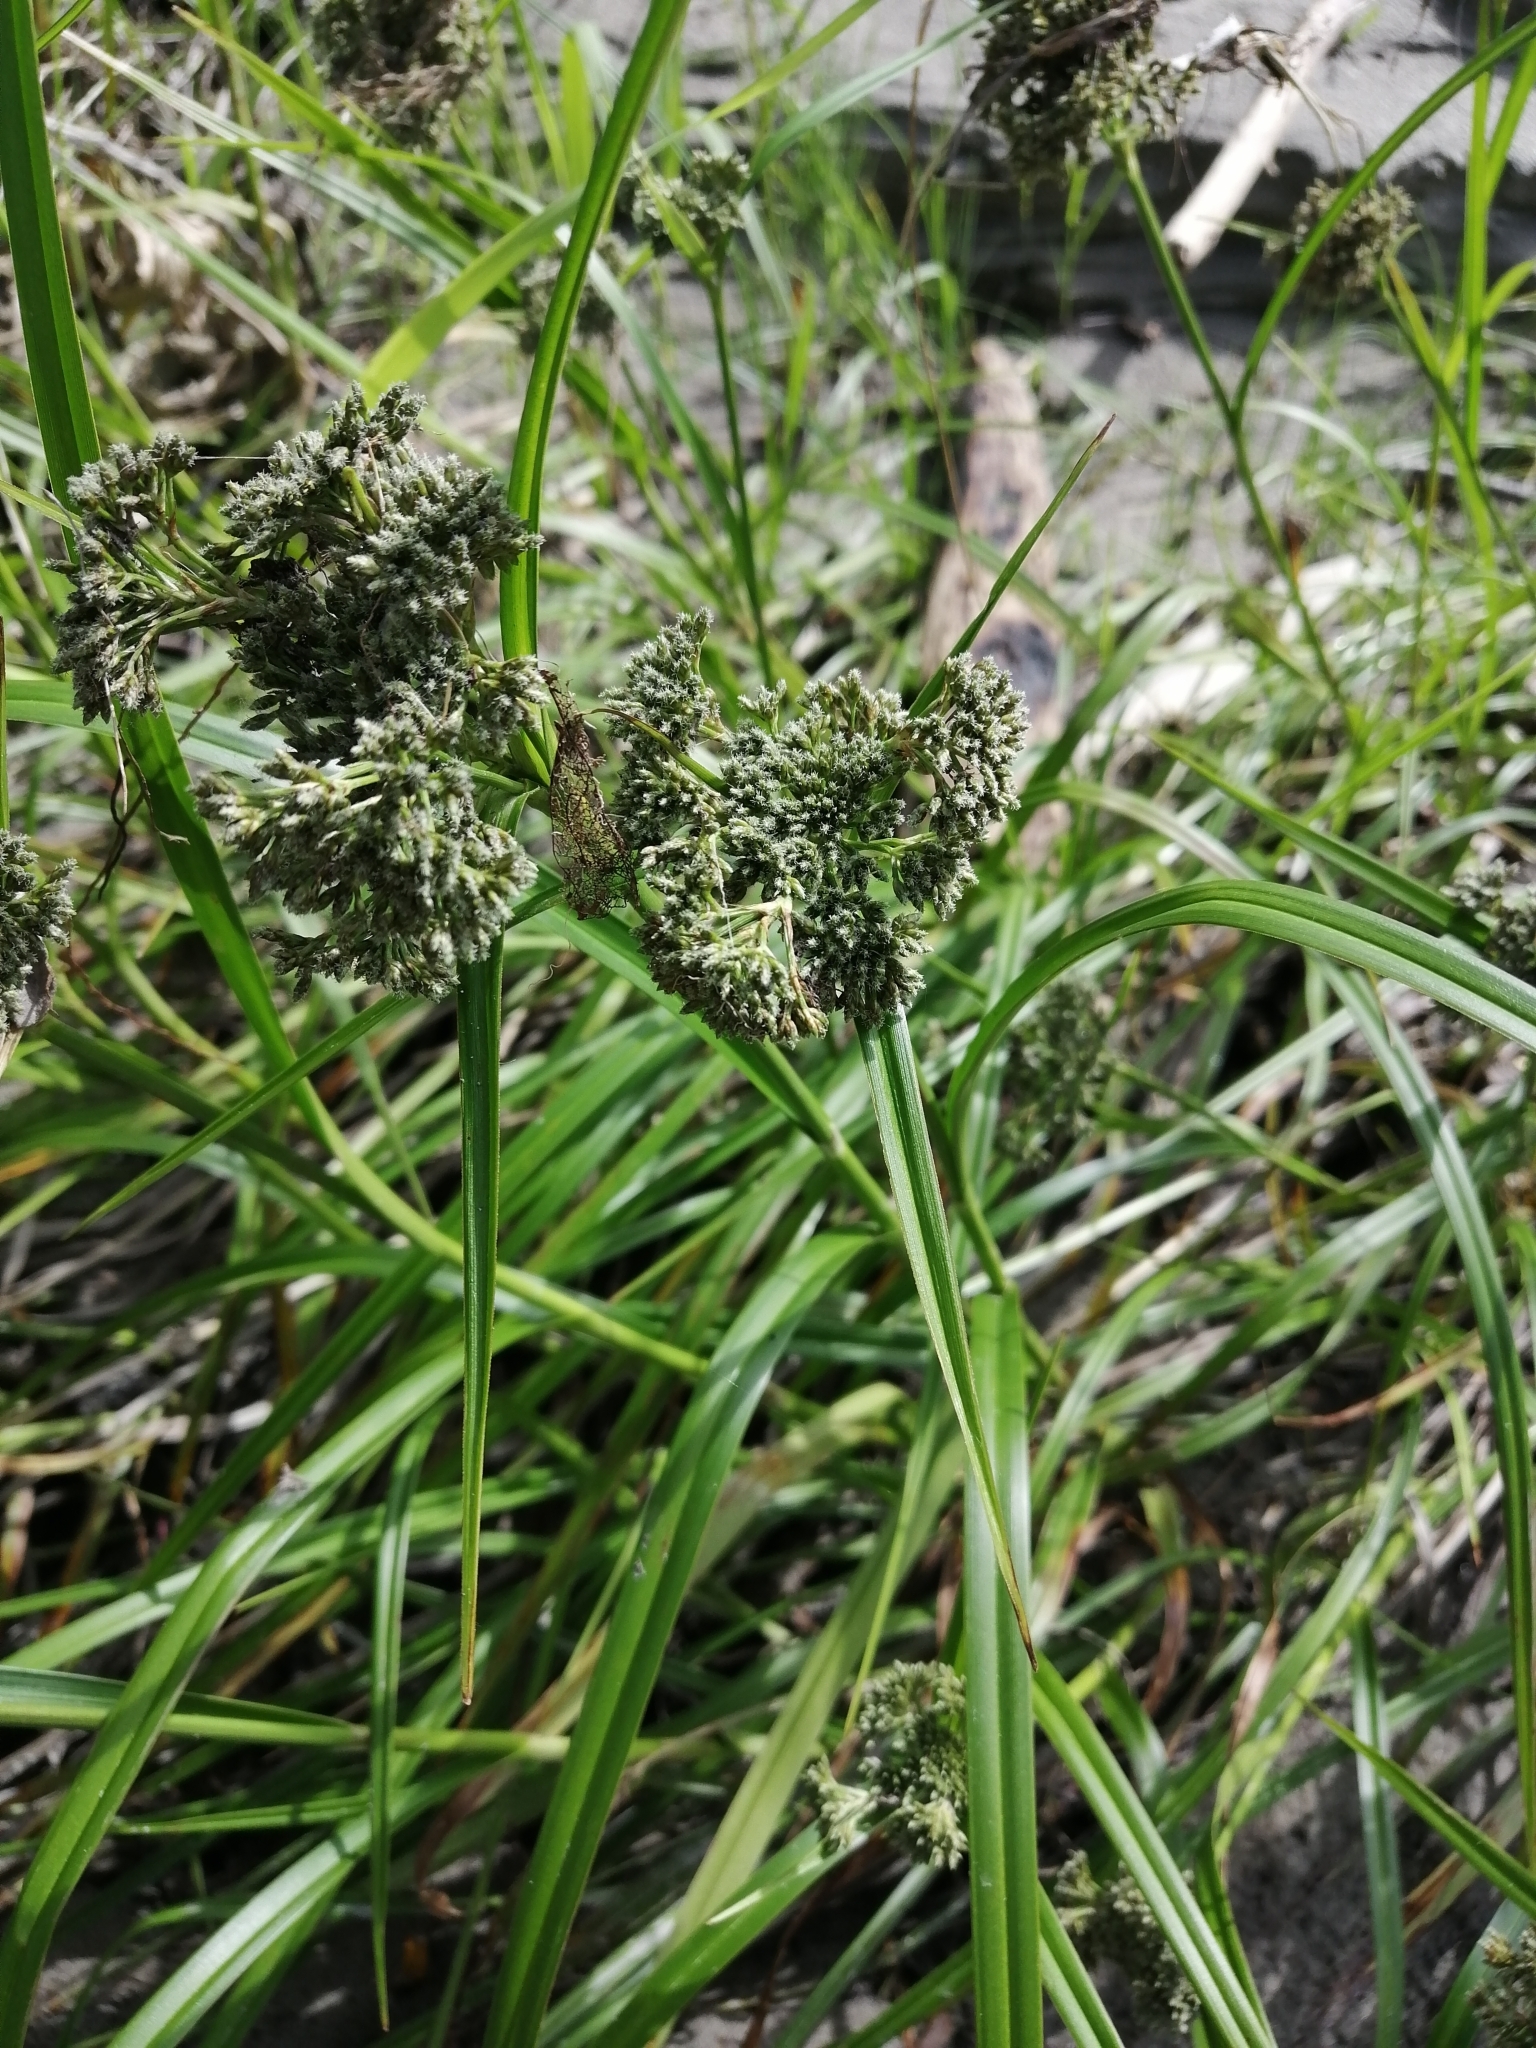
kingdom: Plantae
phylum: Tracheophyta
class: Liliopsida
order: Poales
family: Cyperaceae
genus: Scirpus
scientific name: Scirpus sylvaticus
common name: Wood club-rush
